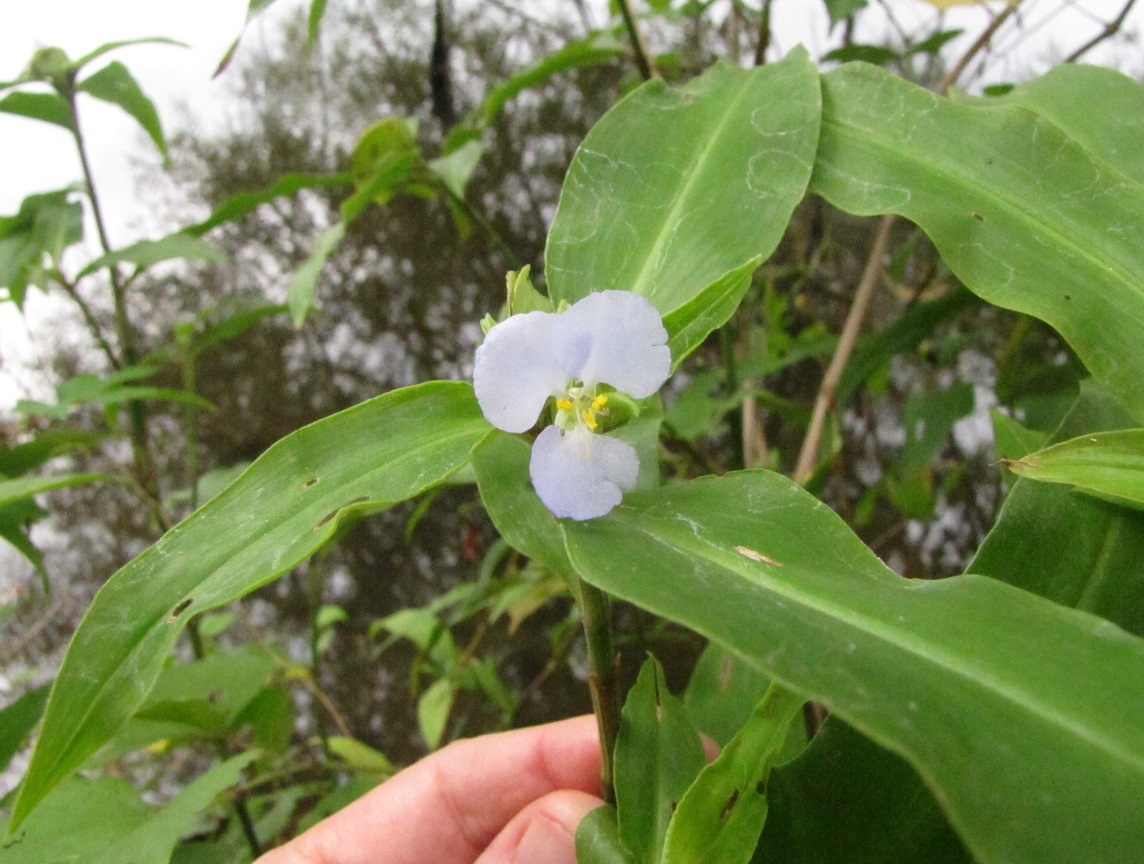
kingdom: Plantae
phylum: Tracheophyta
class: Liliopsida
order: Commelinales
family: Commelinaceae
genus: Commelina
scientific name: Commelina virginica
